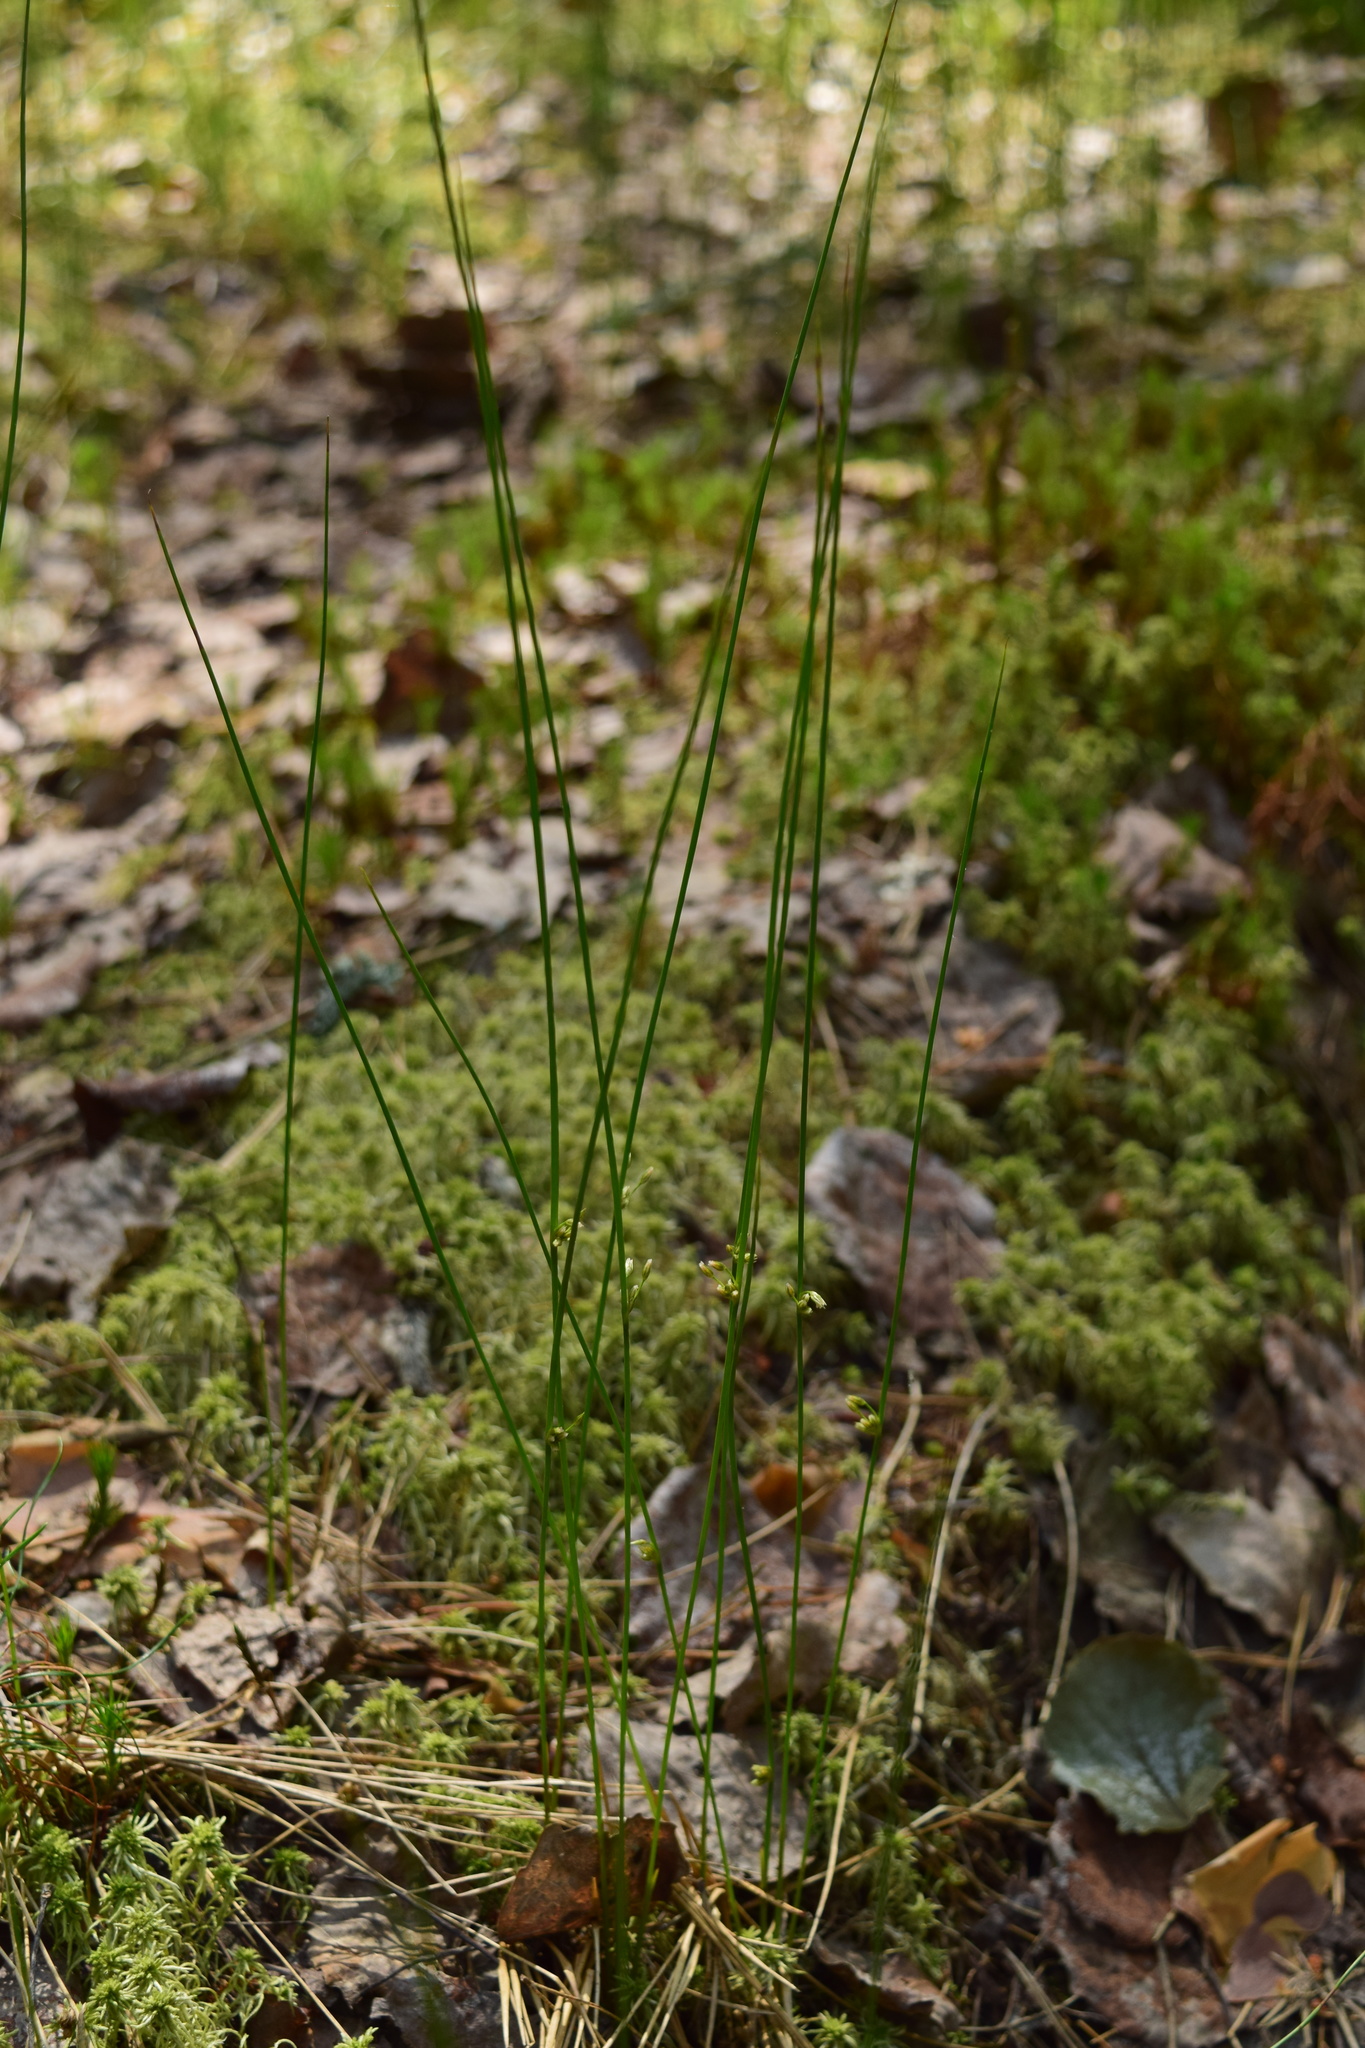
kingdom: Plantae
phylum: Tracheophyta
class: Liliopsida
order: Poales
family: Juncaceae
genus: Juncus
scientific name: Juncus filiformis
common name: Thread rush
